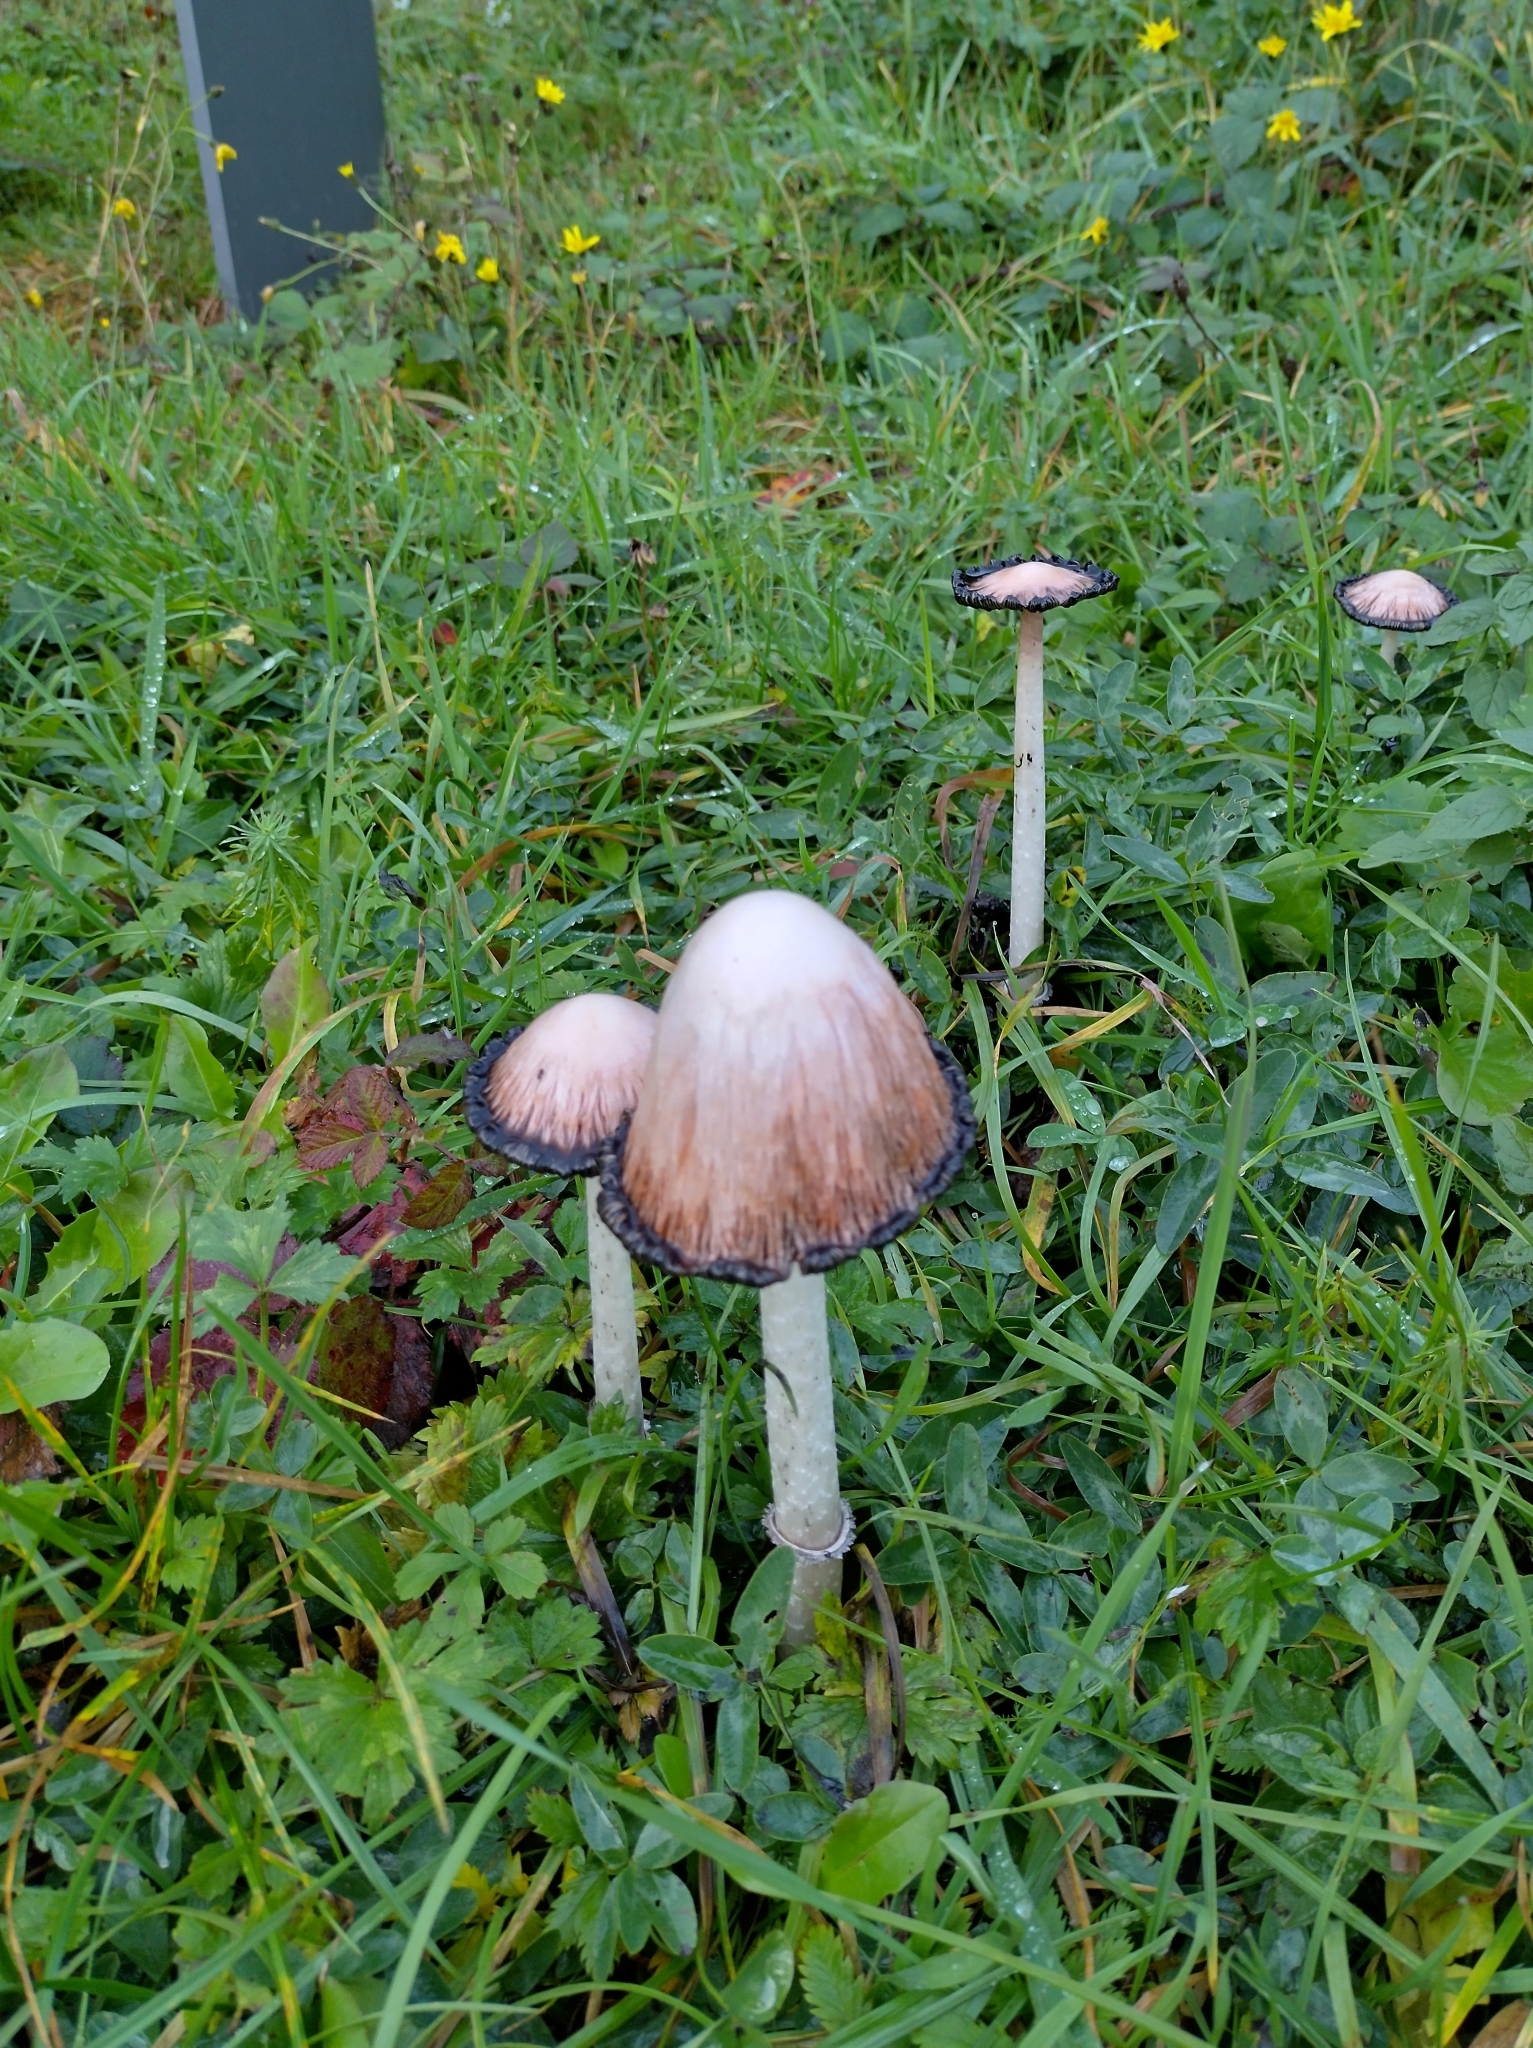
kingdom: Fungi
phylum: Basidiomycota
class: Agaricomycetes
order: Agaricales
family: Agaricaceae
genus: Coprinus
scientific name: Coprinus comatus
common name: Lawyer's wig
